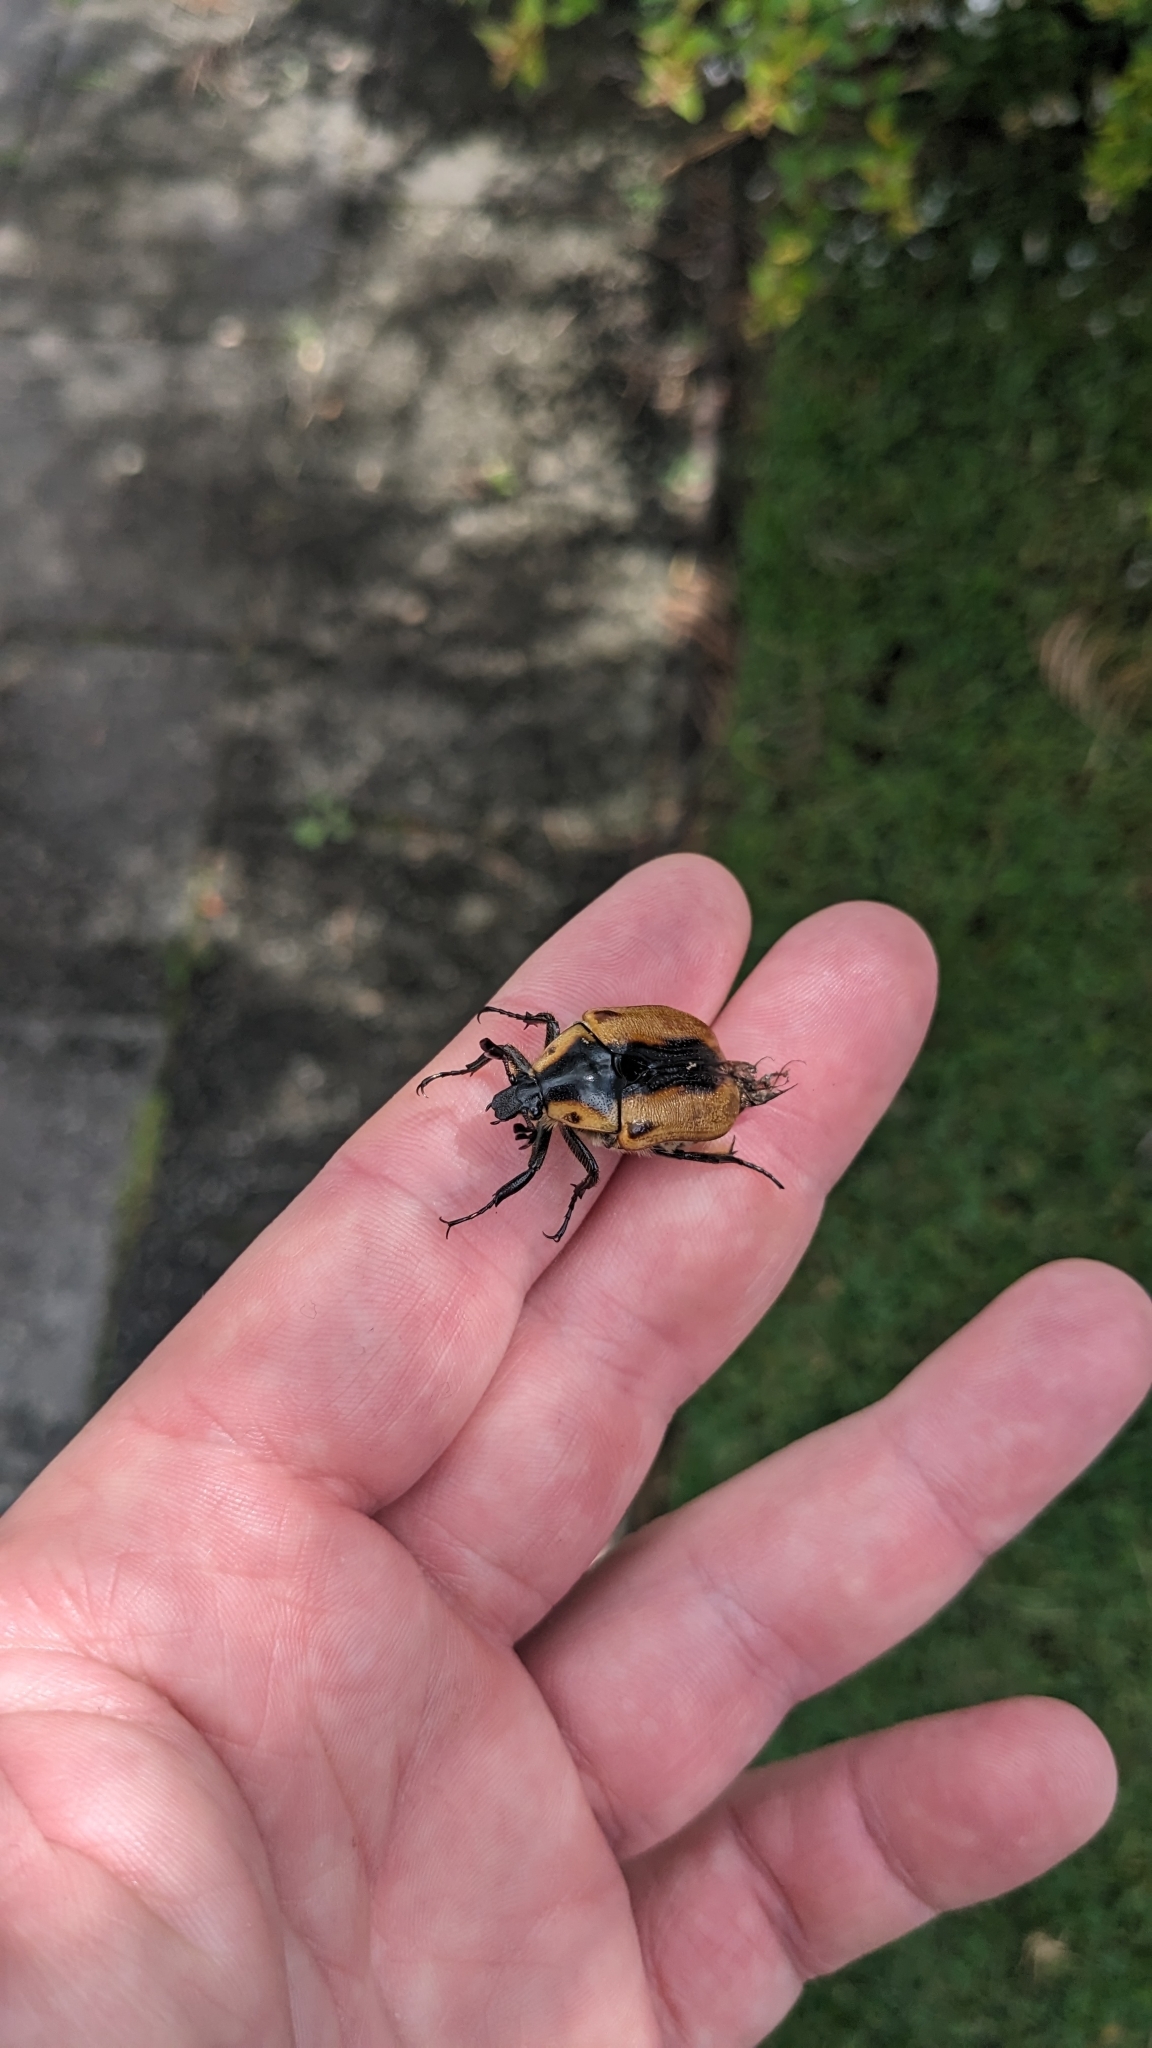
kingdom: Animalia
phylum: Arthropoda
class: Insecta
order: Coleoptera
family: Scarabaeidae
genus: Chondropyga
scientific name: Chondropyga dorsalis
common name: Cowboy beetle
